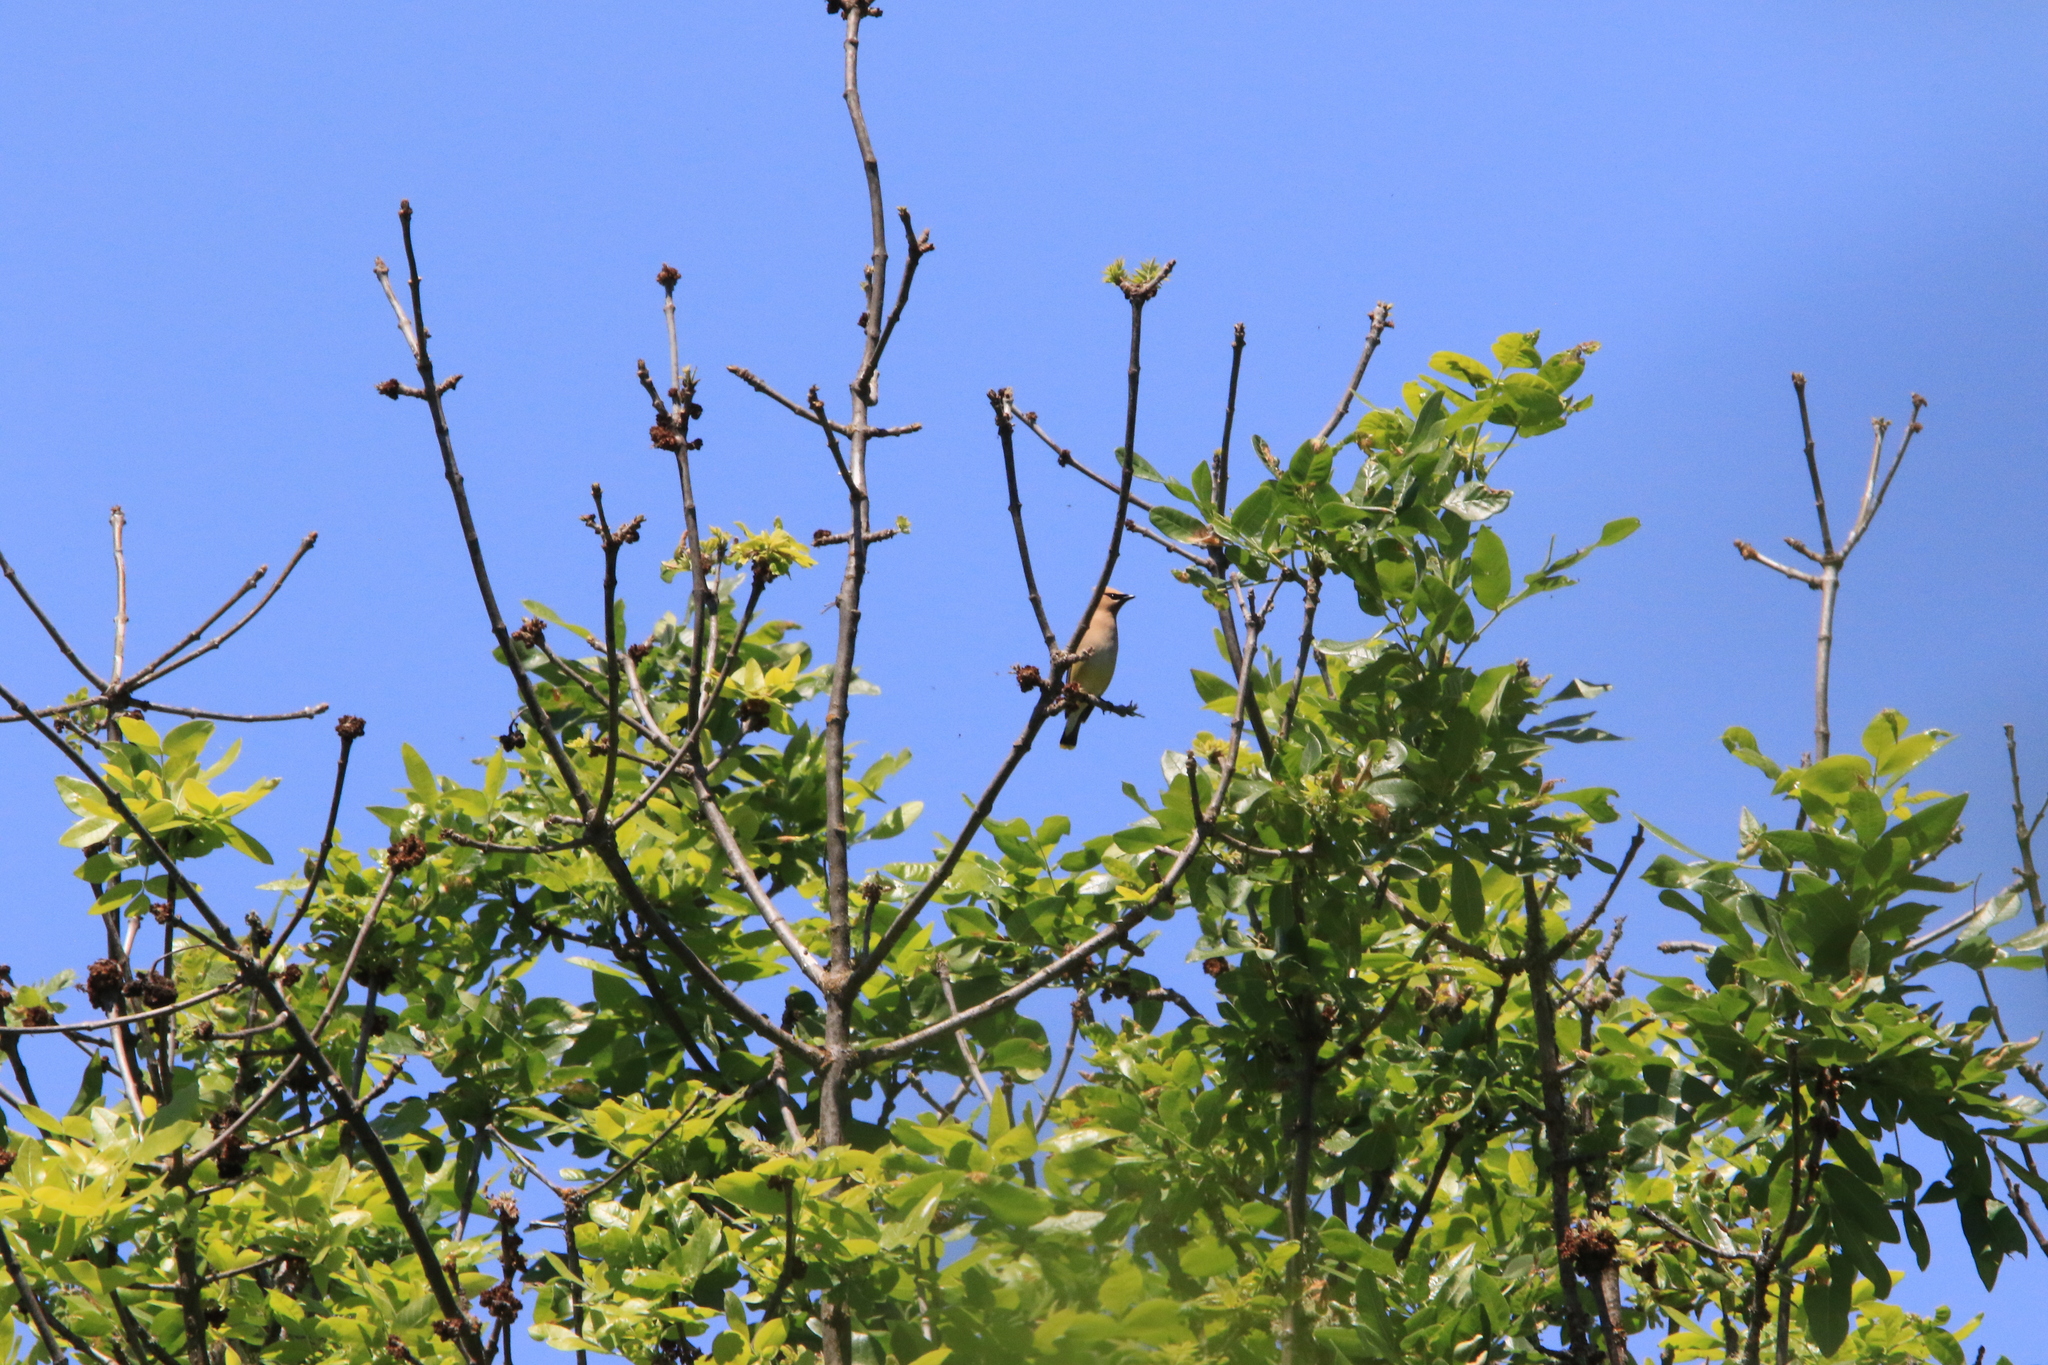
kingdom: Animalia
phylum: Chordata
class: Aves
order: Passeriformes
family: Bombycillidae
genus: Bombycilla
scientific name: Bombycilla cedrorum
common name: Cedar waxwing
